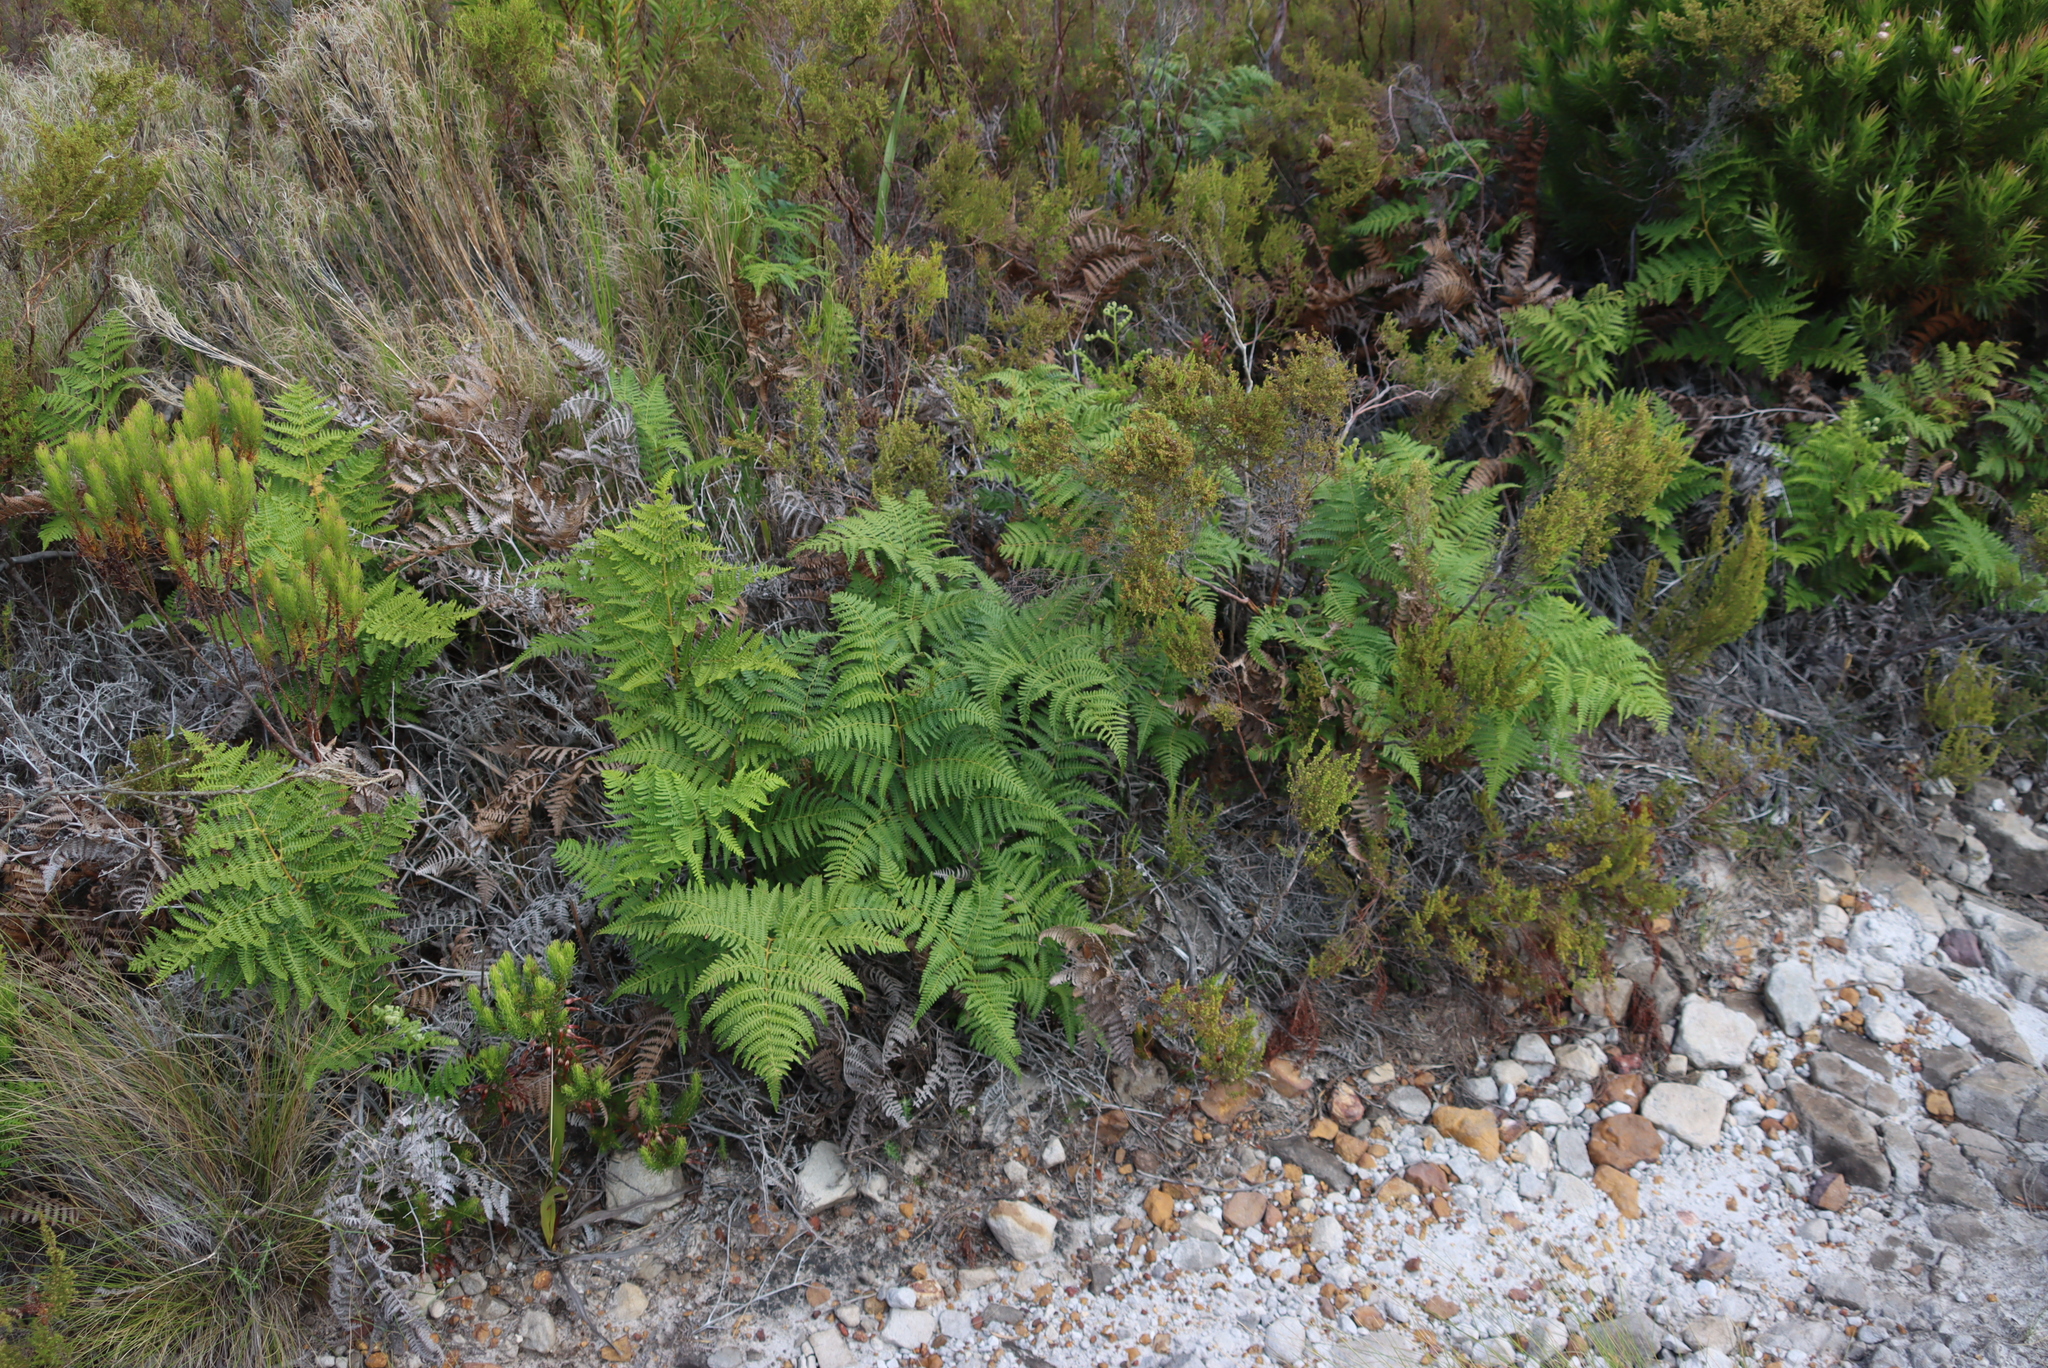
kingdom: Plantae
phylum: Tracheophyta
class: Polypodiopsida
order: Polypodiales
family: Dennstaedtiaceae
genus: Pteridium
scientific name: Pteridium aquilinum
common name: Bracken
